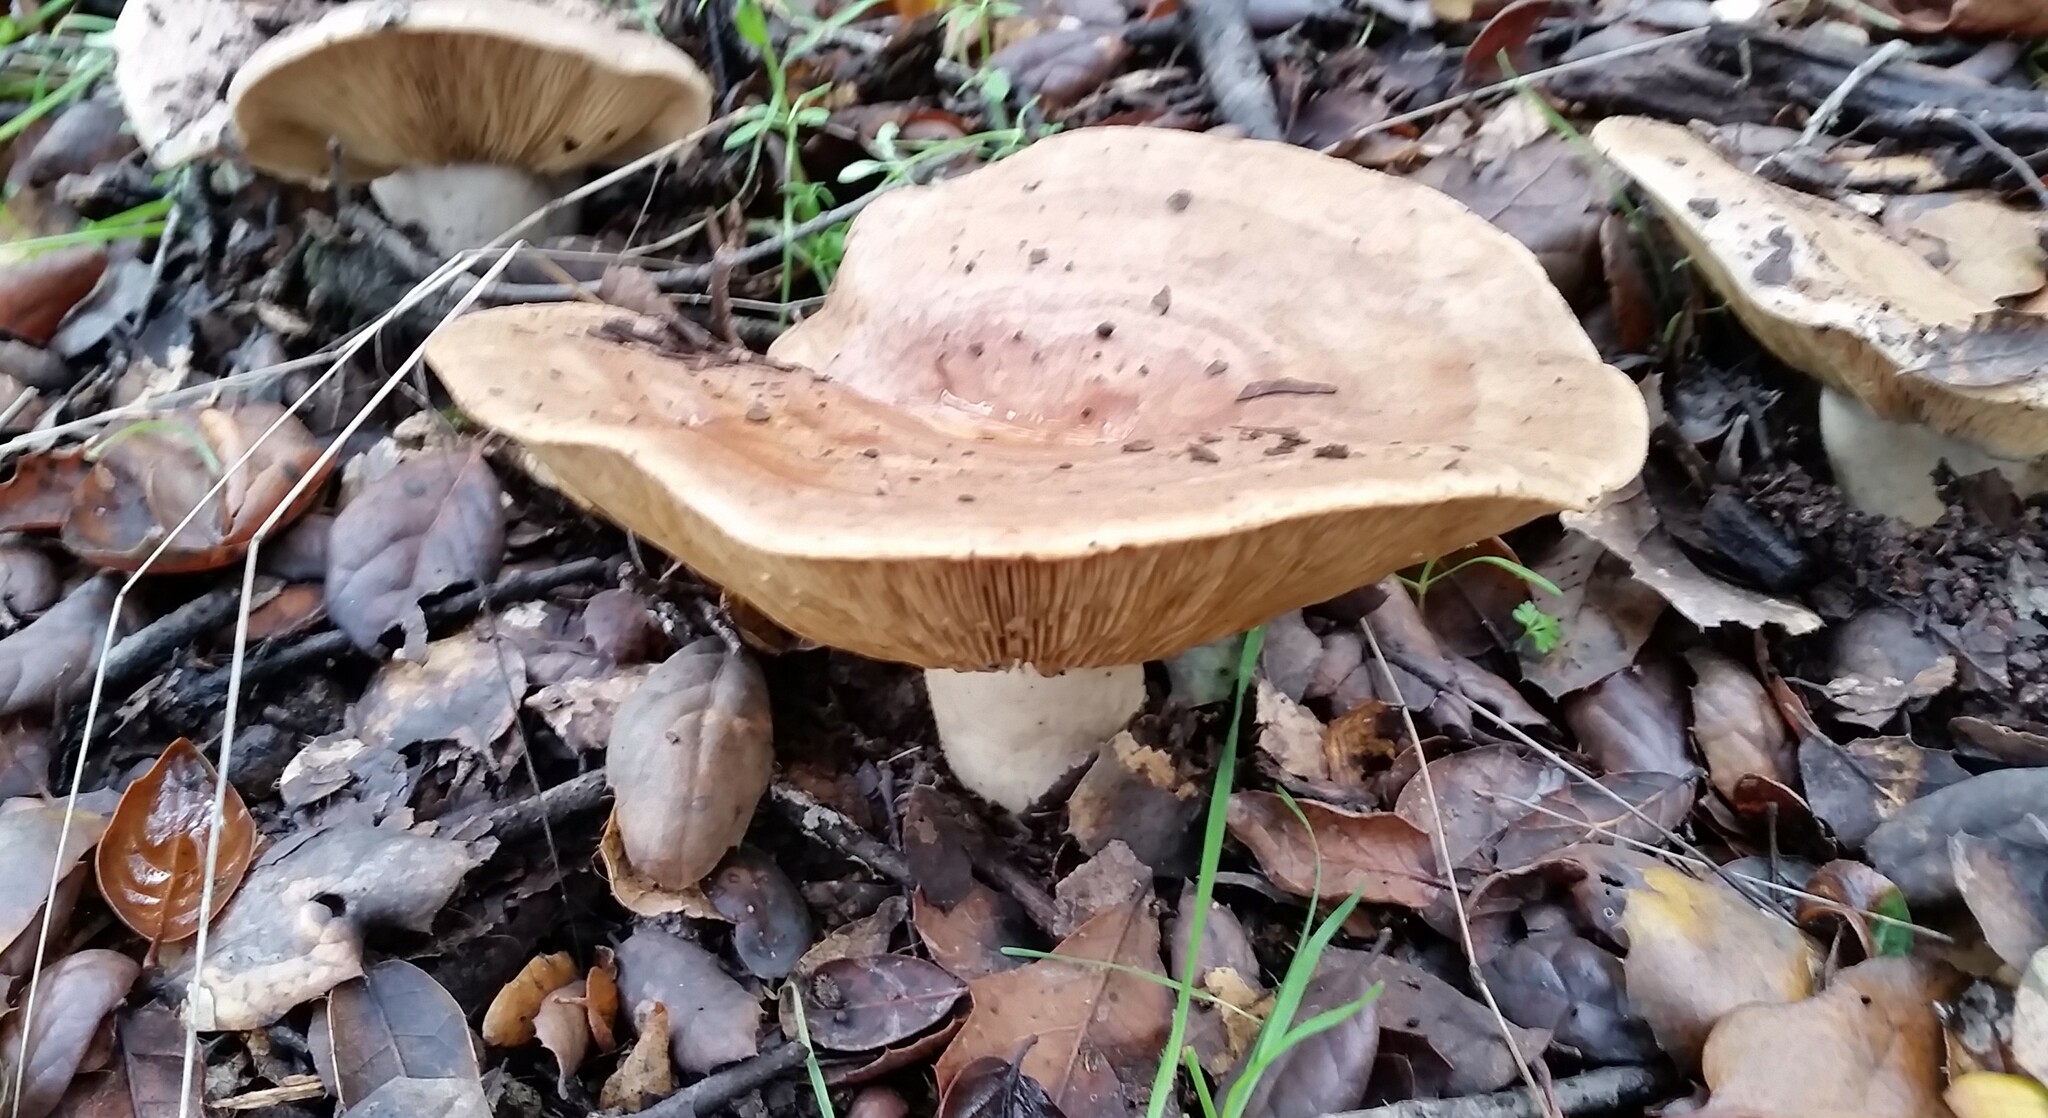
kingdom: Fungi
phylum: Basidiomycota
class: Agaricomycetes
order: Russulales
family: Russulaceae
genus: Lactarius
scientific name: Lactarius argillaceifolius
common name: Clay-gilled milkcap
